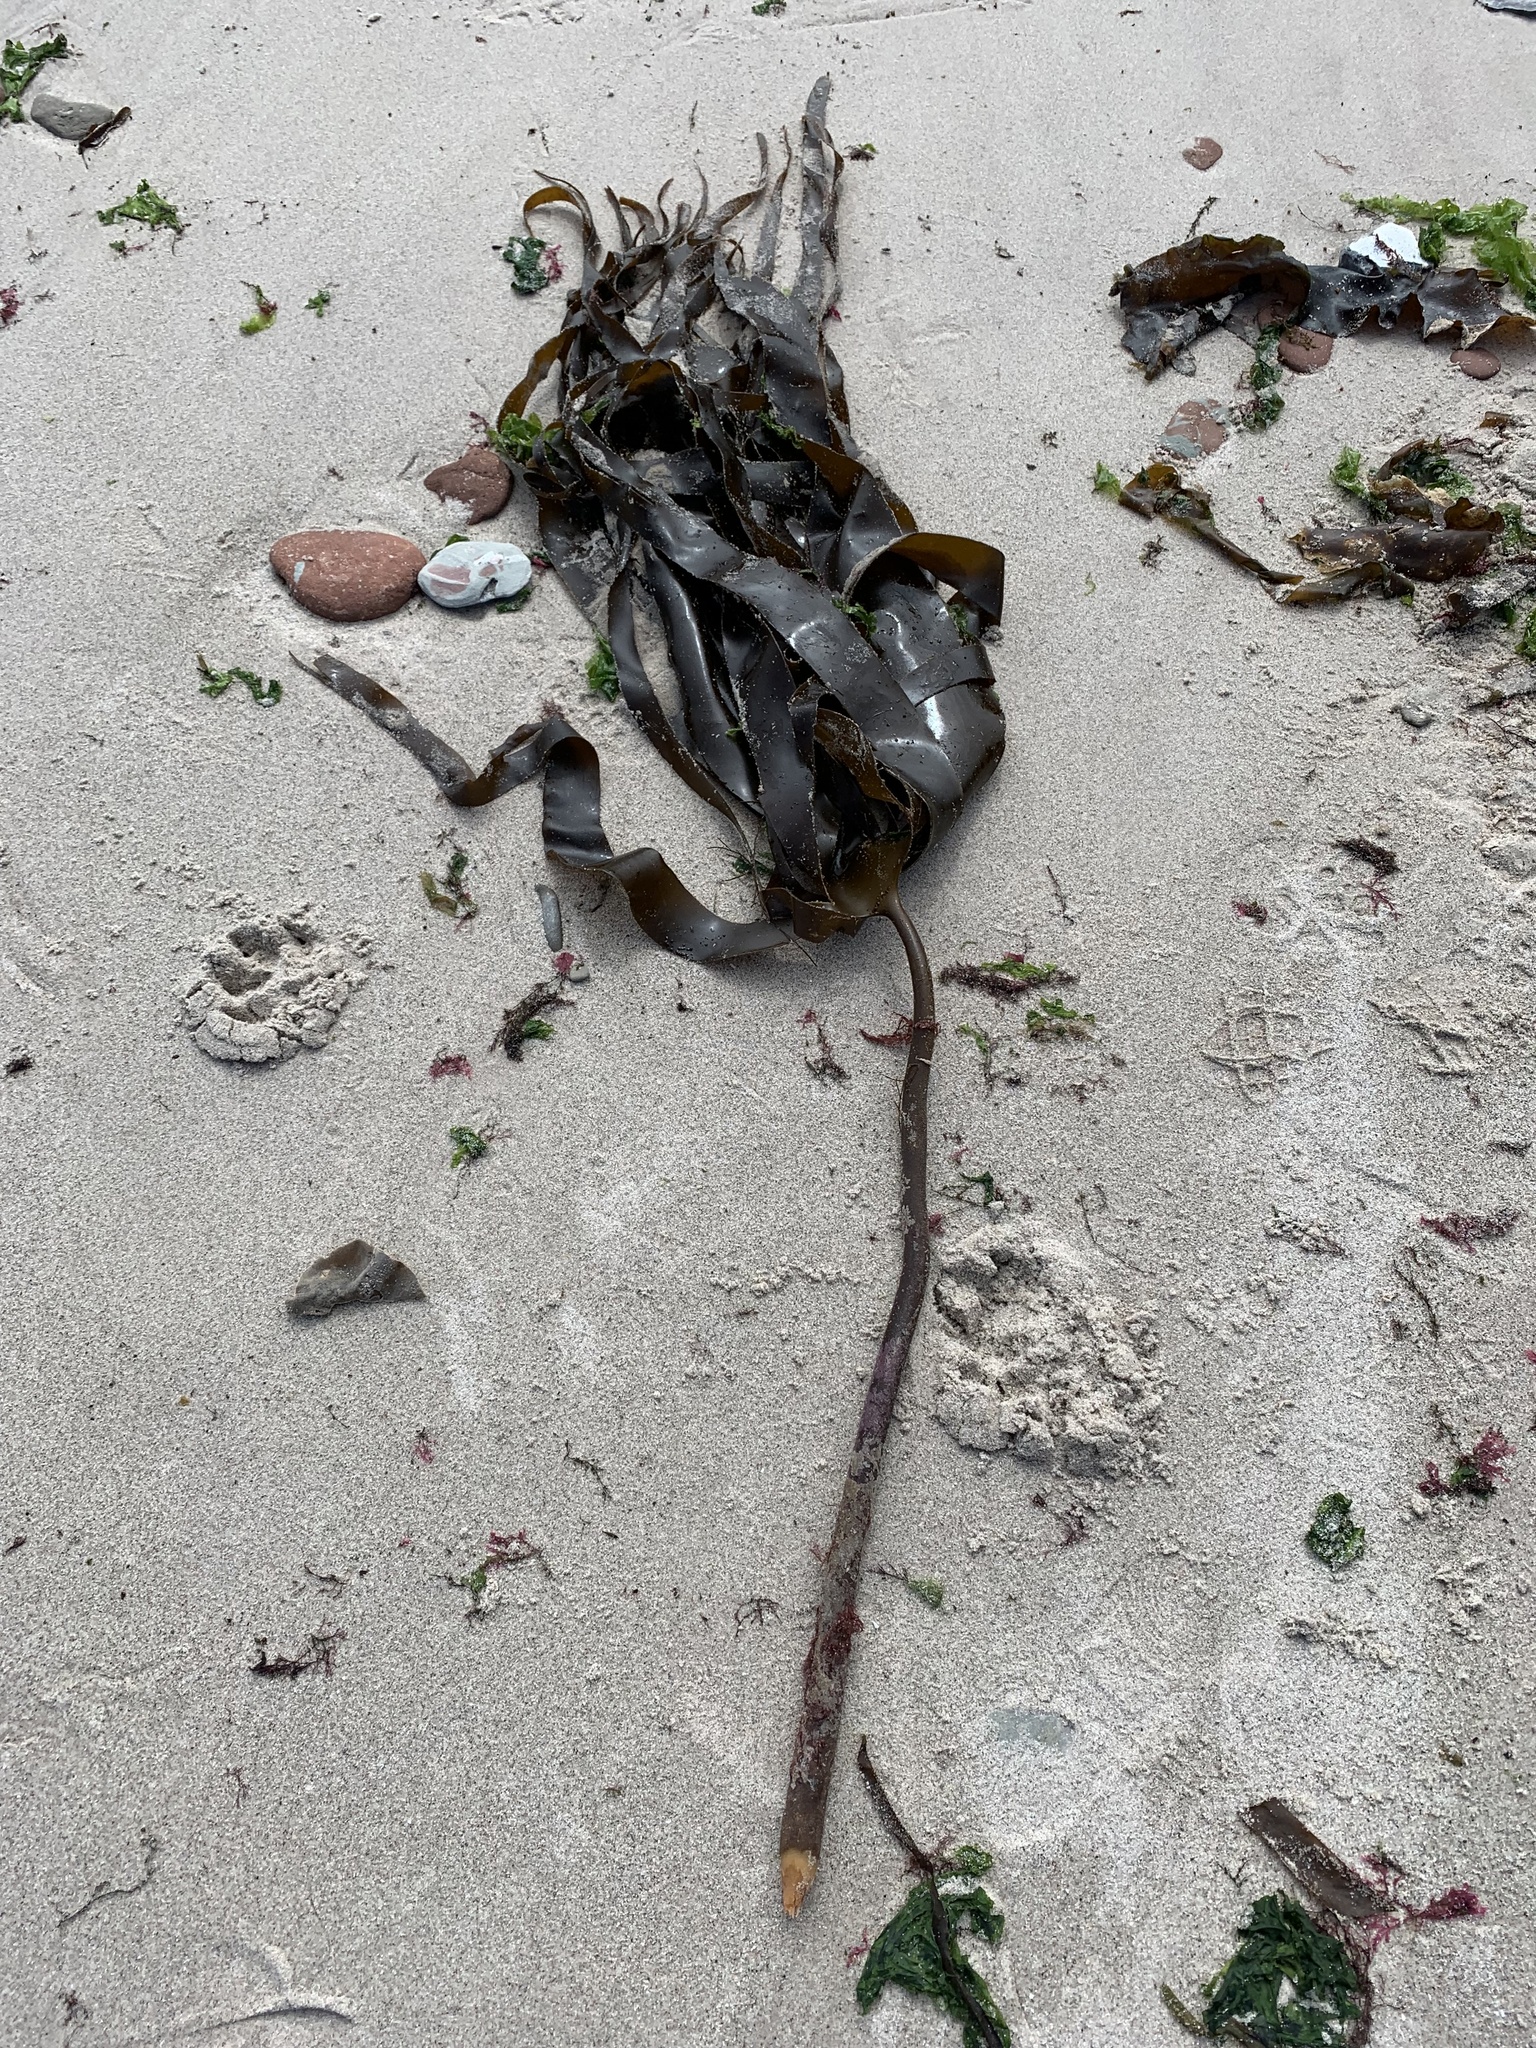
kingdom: Chromista
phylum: Ochrophyta
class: Phaeophyceae
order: Laminariales
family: Laminariaceae
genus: Laminaria
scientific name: Laminaria hyperborea
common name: Cuvie
